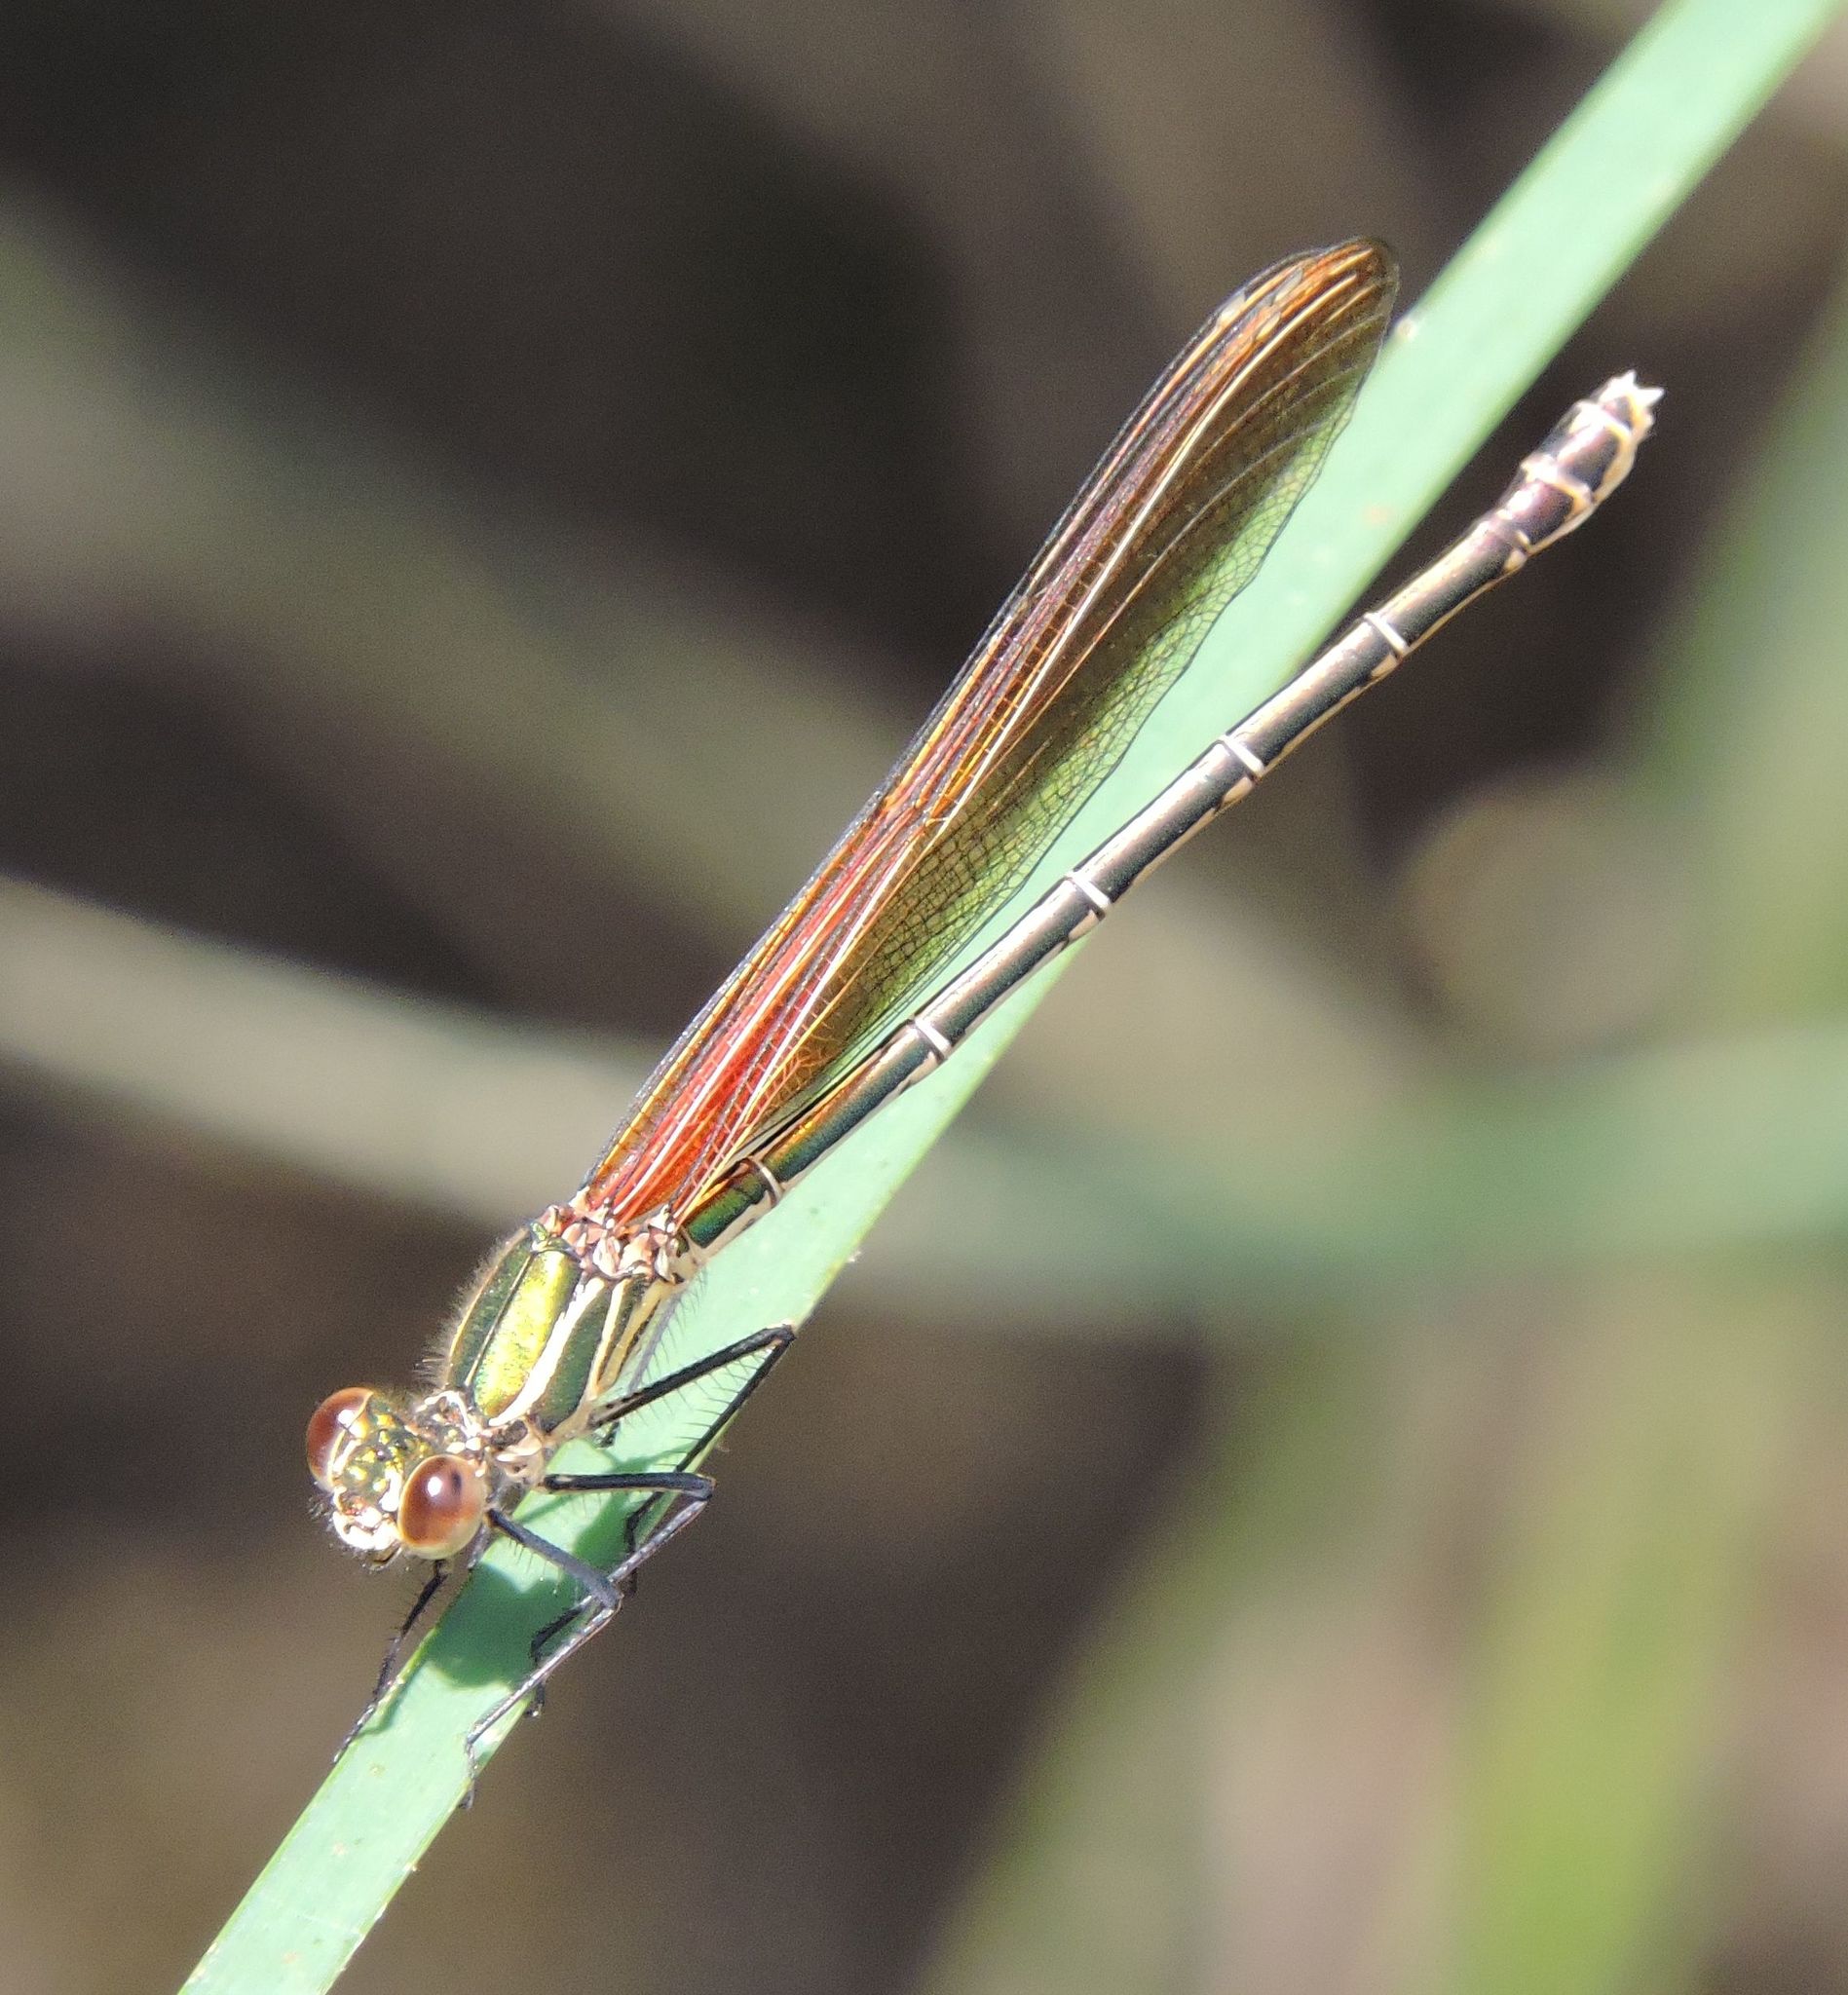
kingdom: Animalia
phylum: Arthropoda
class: Insecta
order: Odonata
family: Calopterygidae
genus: Hetaerina
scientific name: Hetaerina americana
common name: American rubyspot
